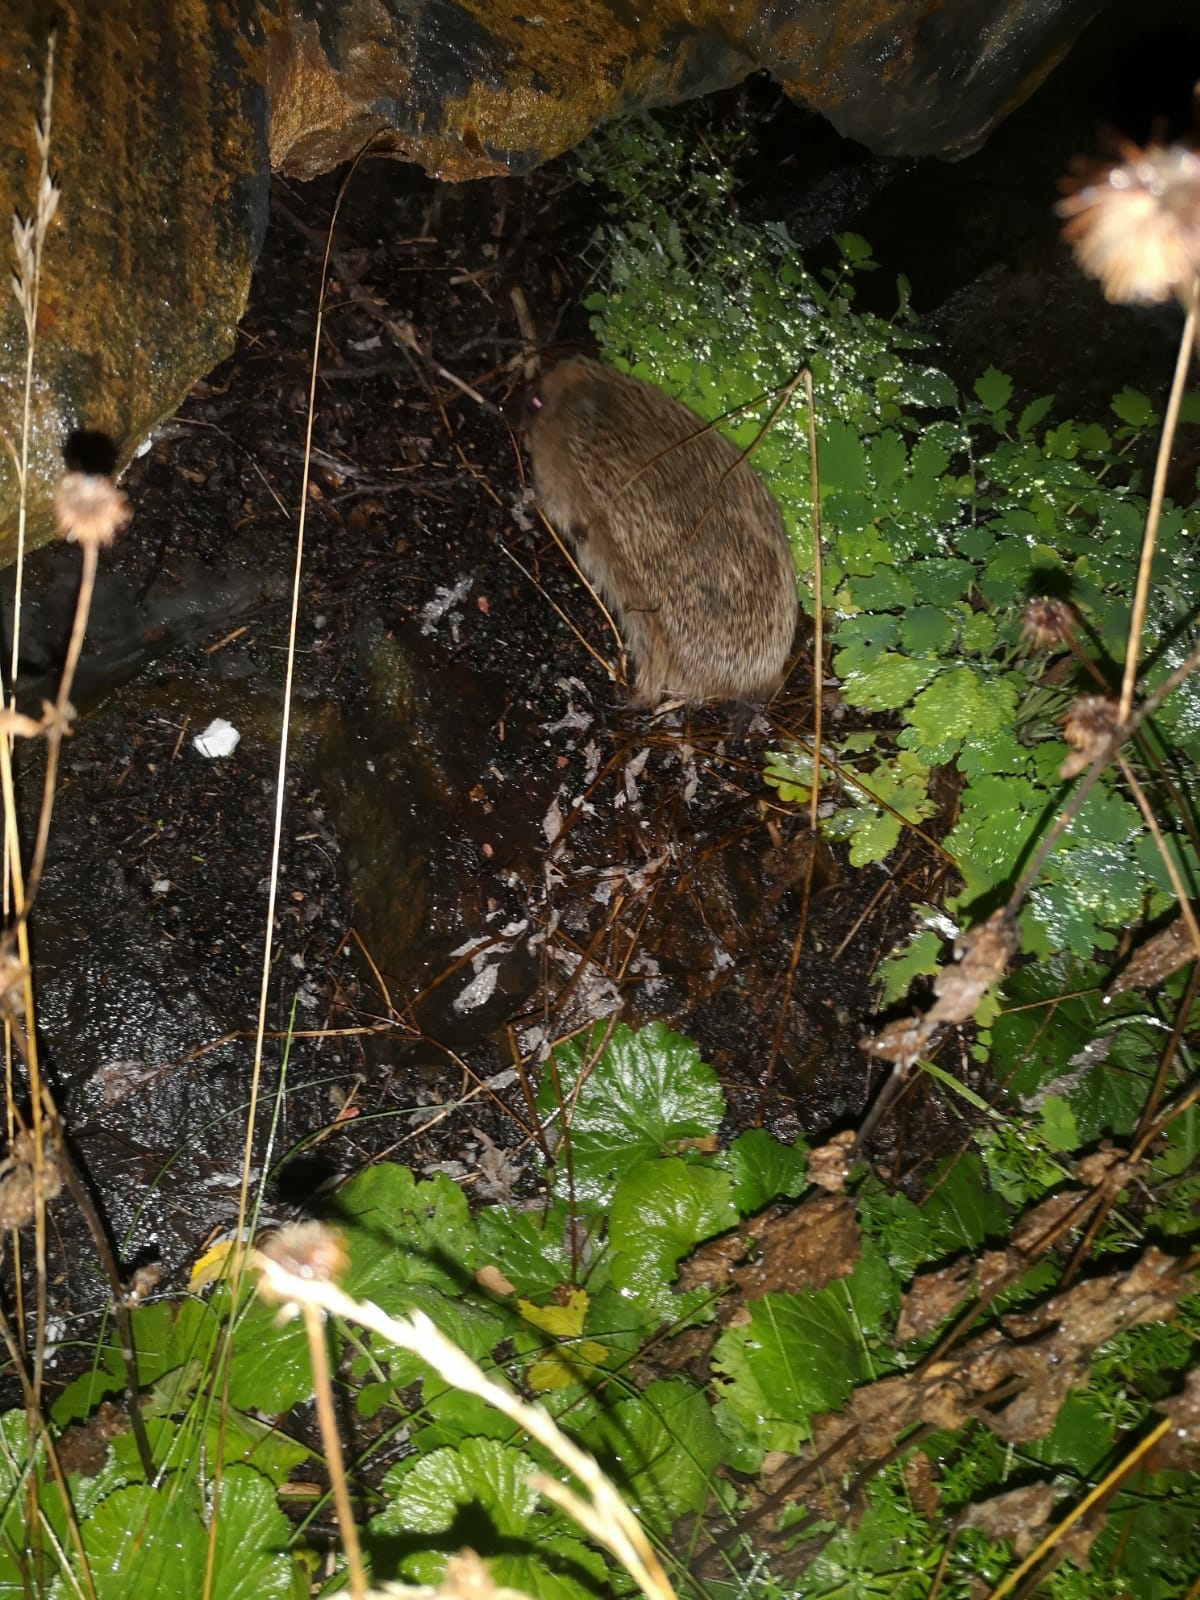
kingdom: Animalia
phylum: Chordata
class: Mammalia
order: Erinaceomorpha
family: Erinaceidae
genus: Erinaceus
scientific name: Erinaceus europaeus
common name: West european hedgehog
